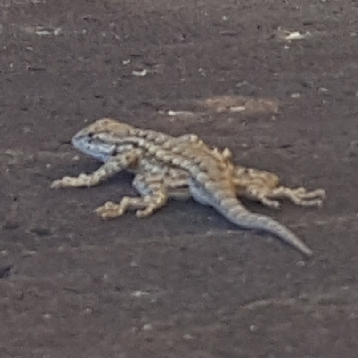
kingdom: Animalia
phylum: Chordata
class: Squamata
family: Phrynosomatidae
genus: Sceloporus
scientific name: Sceloporus occidentalis
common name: Western fence lizard
